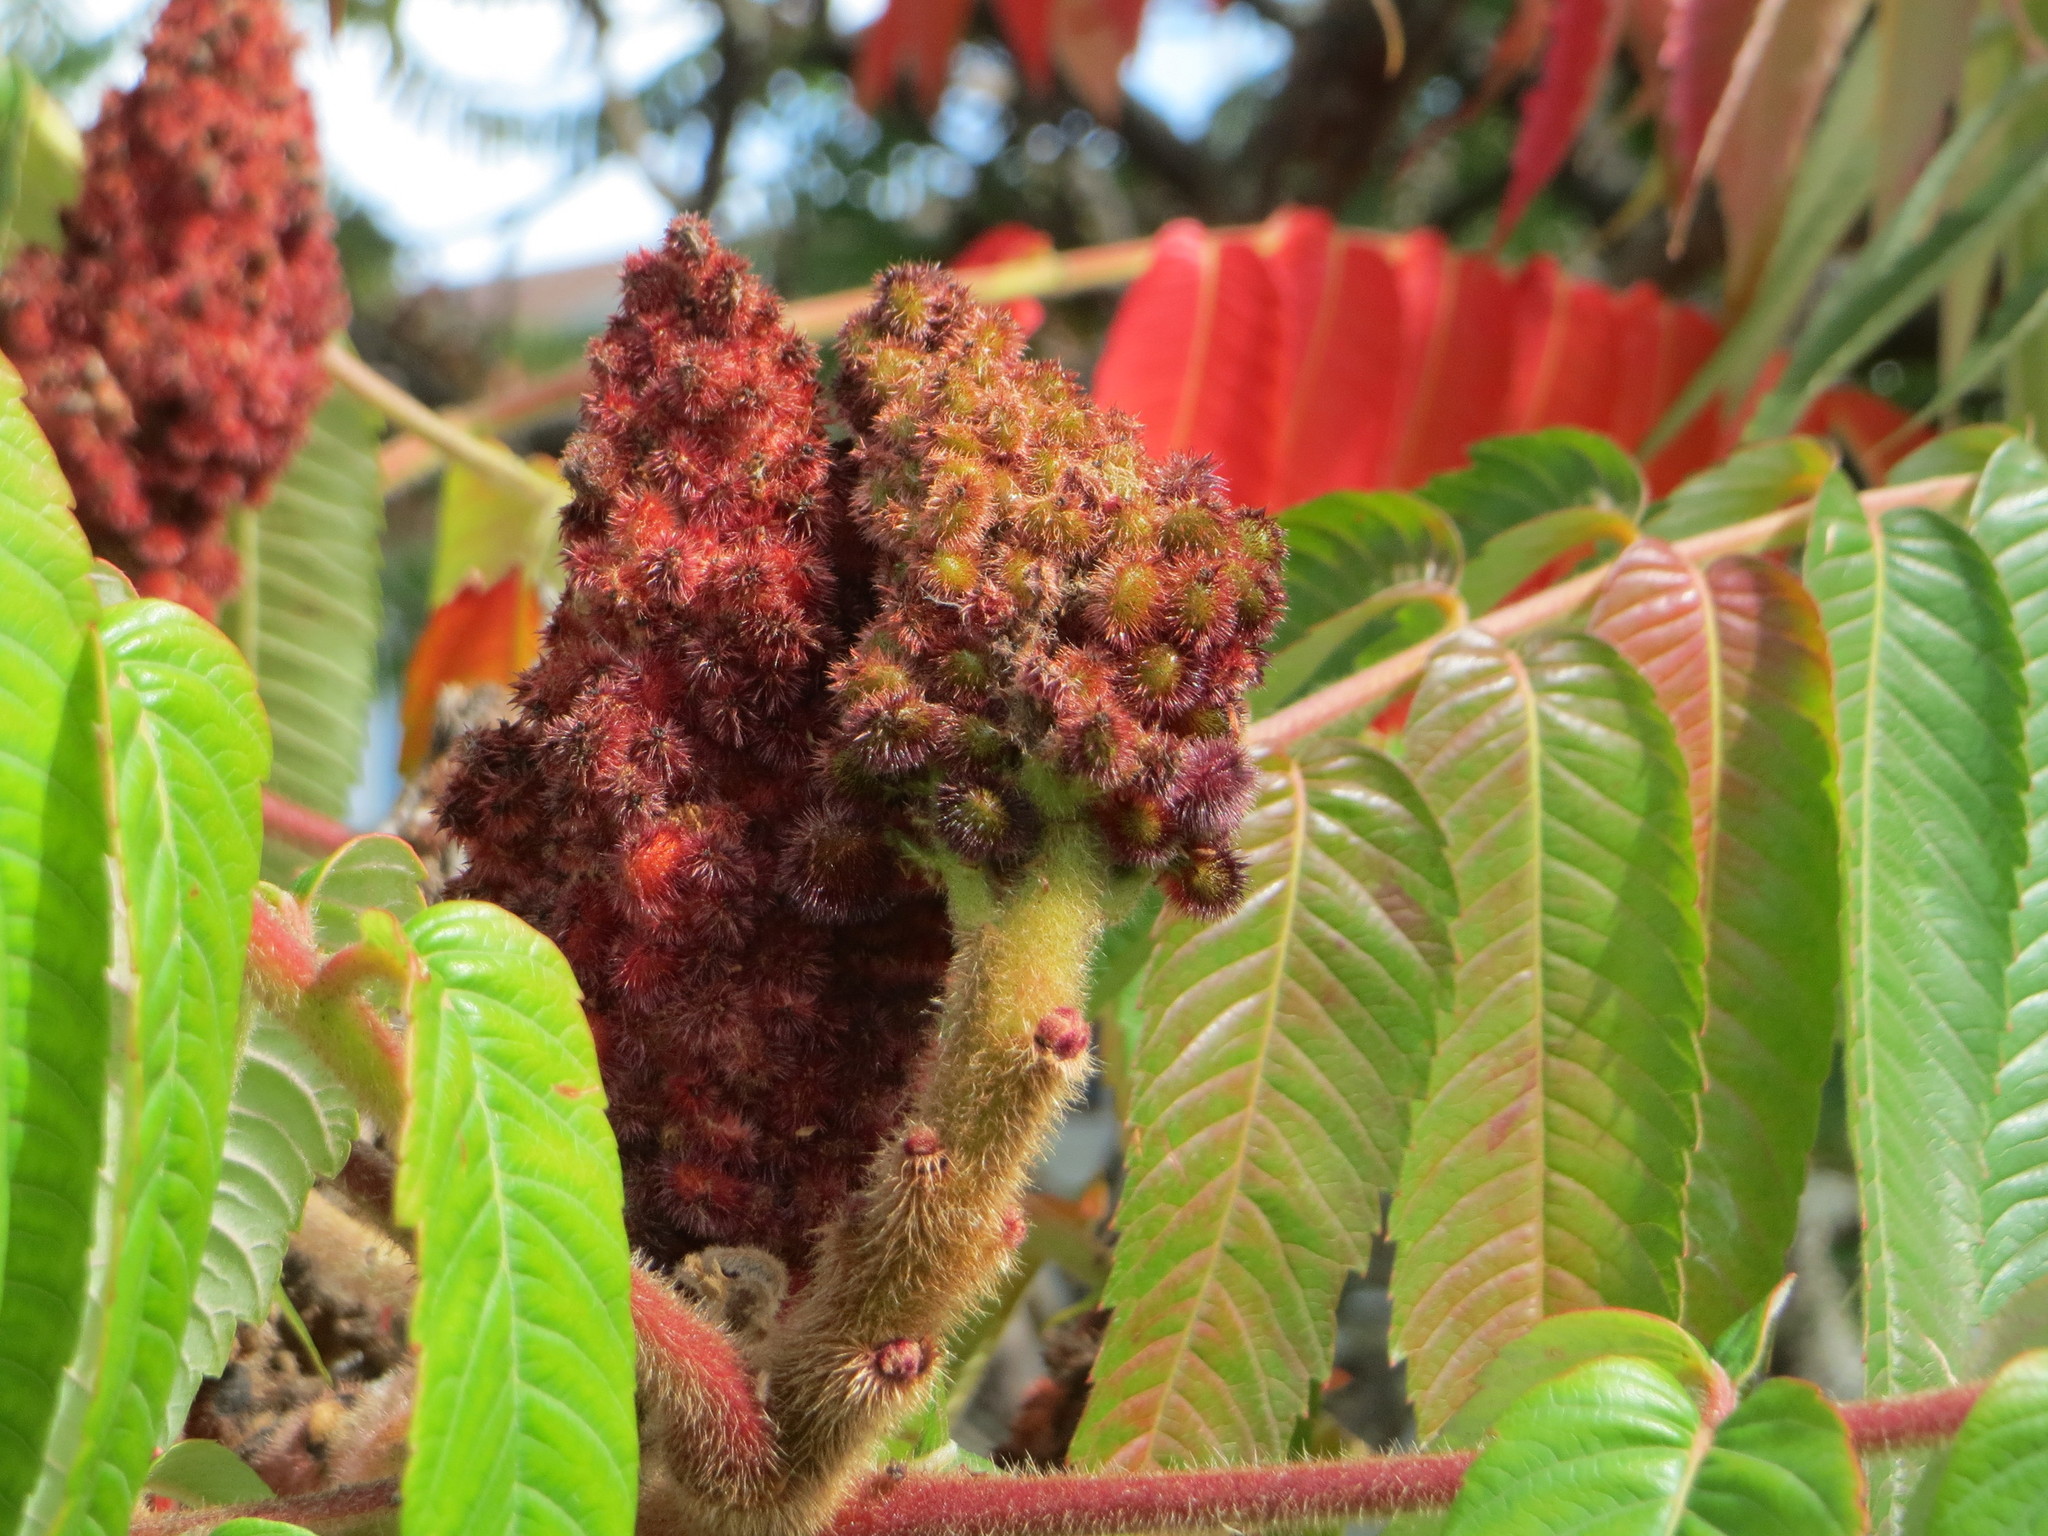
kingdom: Plantae
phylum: Tracheophyta
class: Magnoliopsida
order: Sapindales
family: Anacardiaceae
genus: Rhus
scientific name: Rhus typhina
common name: Staghorn sumac
